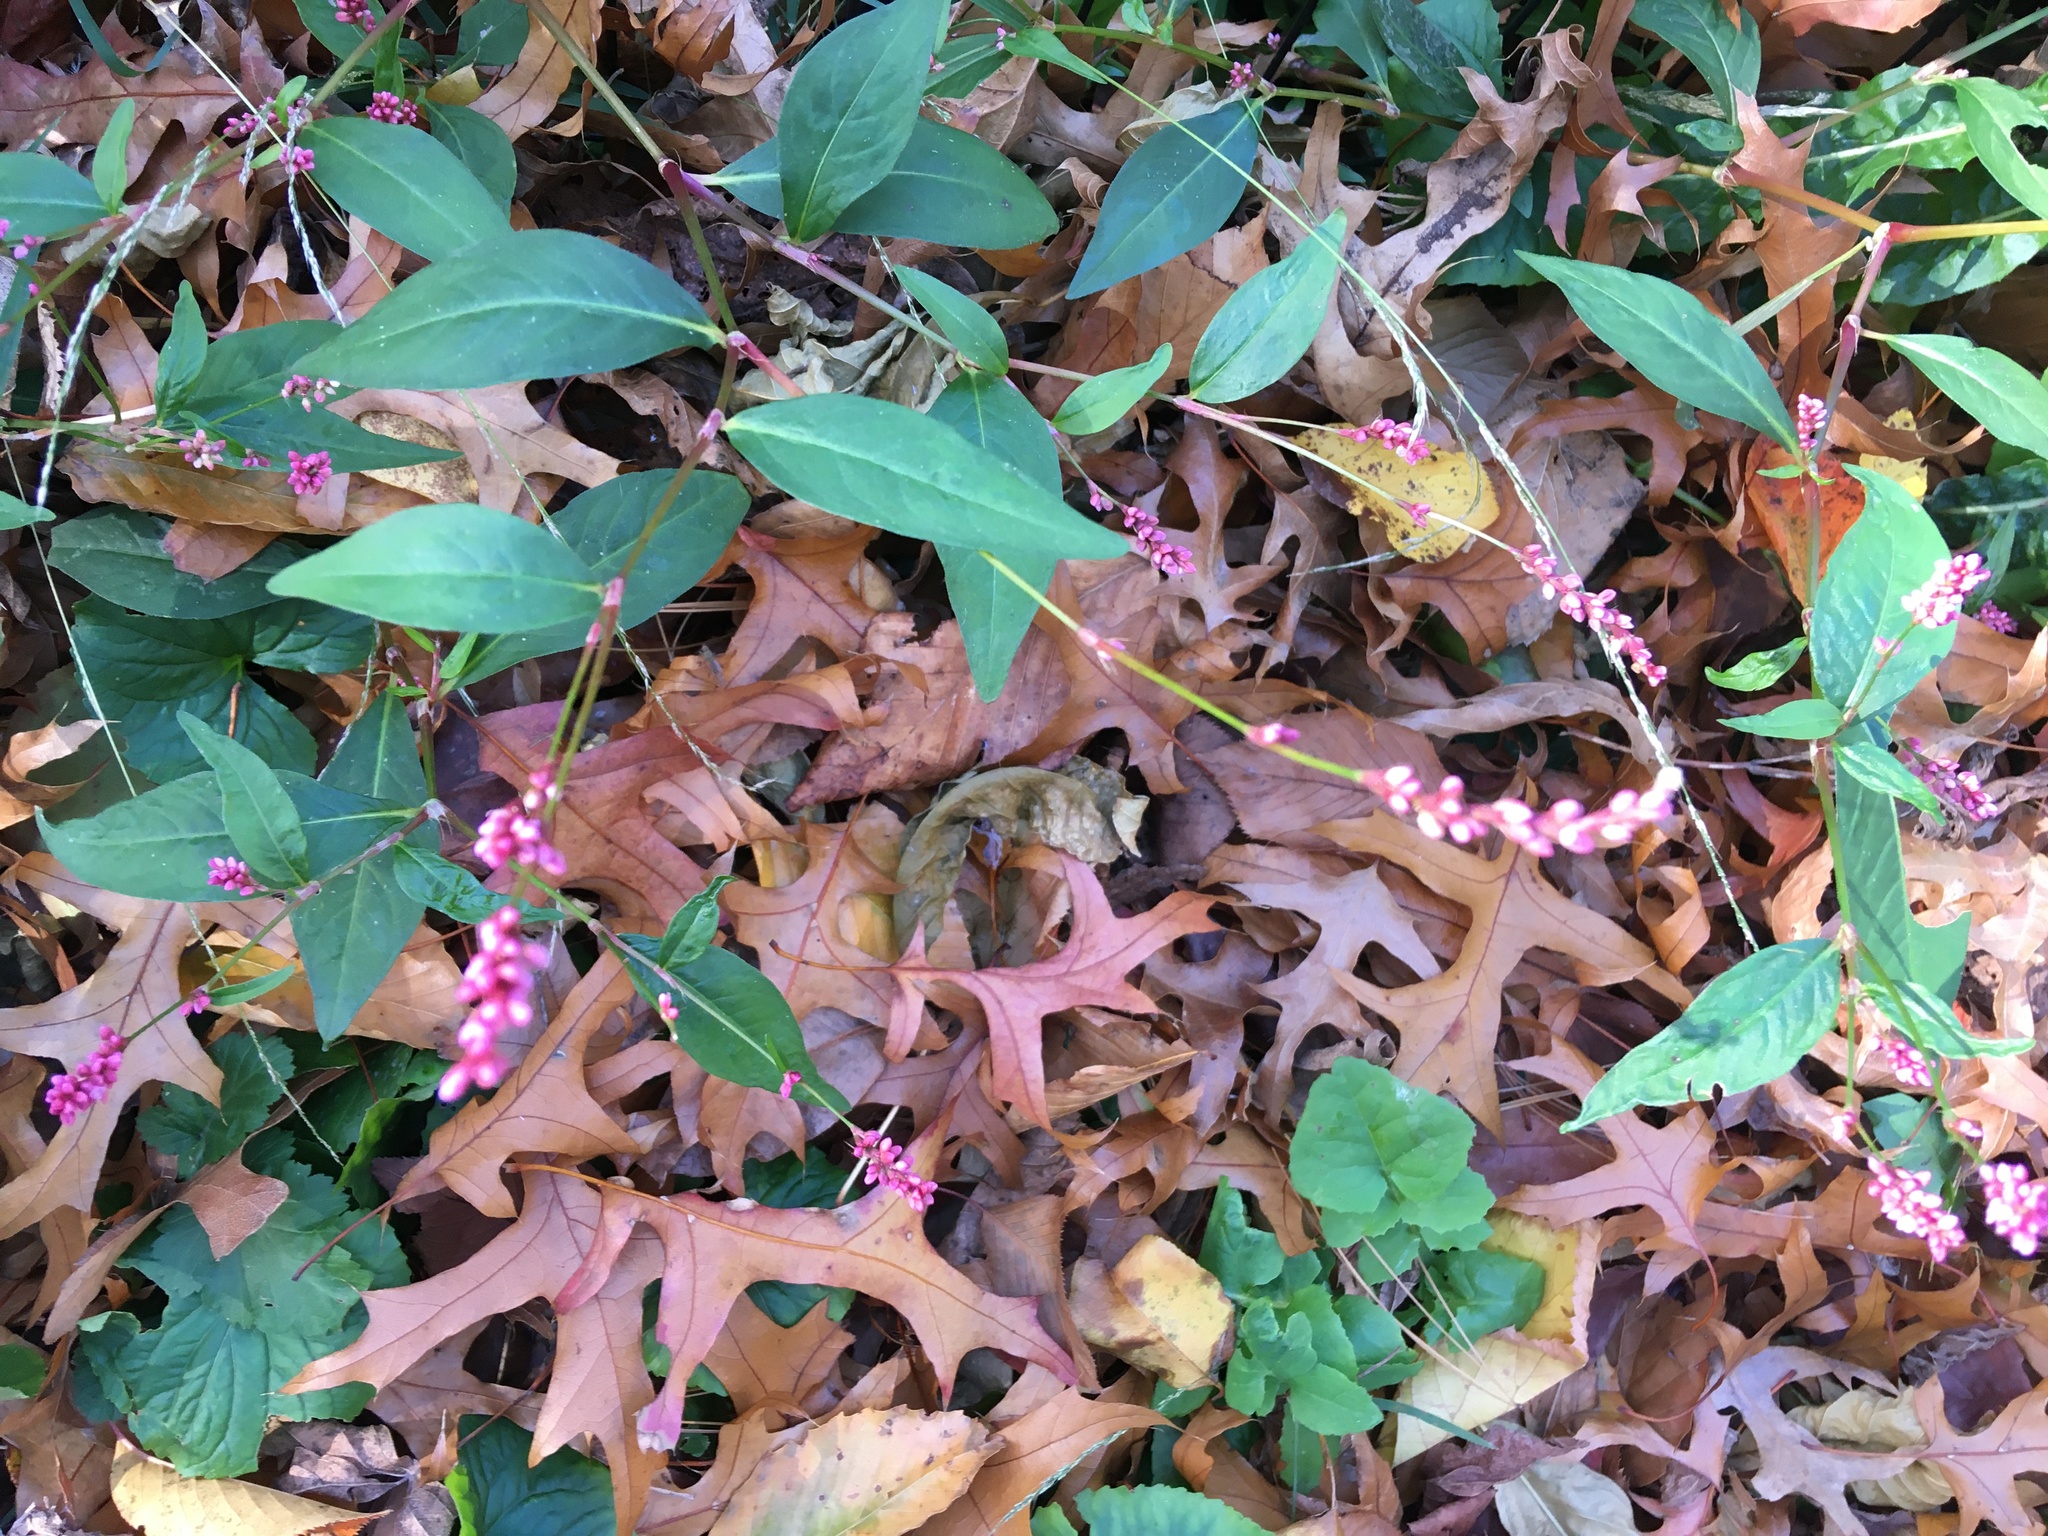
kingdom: Plantae
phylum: Tracheophyta
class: Magnoliopsida
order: Caryophyllales
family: Polygonaceae
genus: Persicaria
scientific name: Persicaria longiseta
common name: Bristly lady's-thumb
